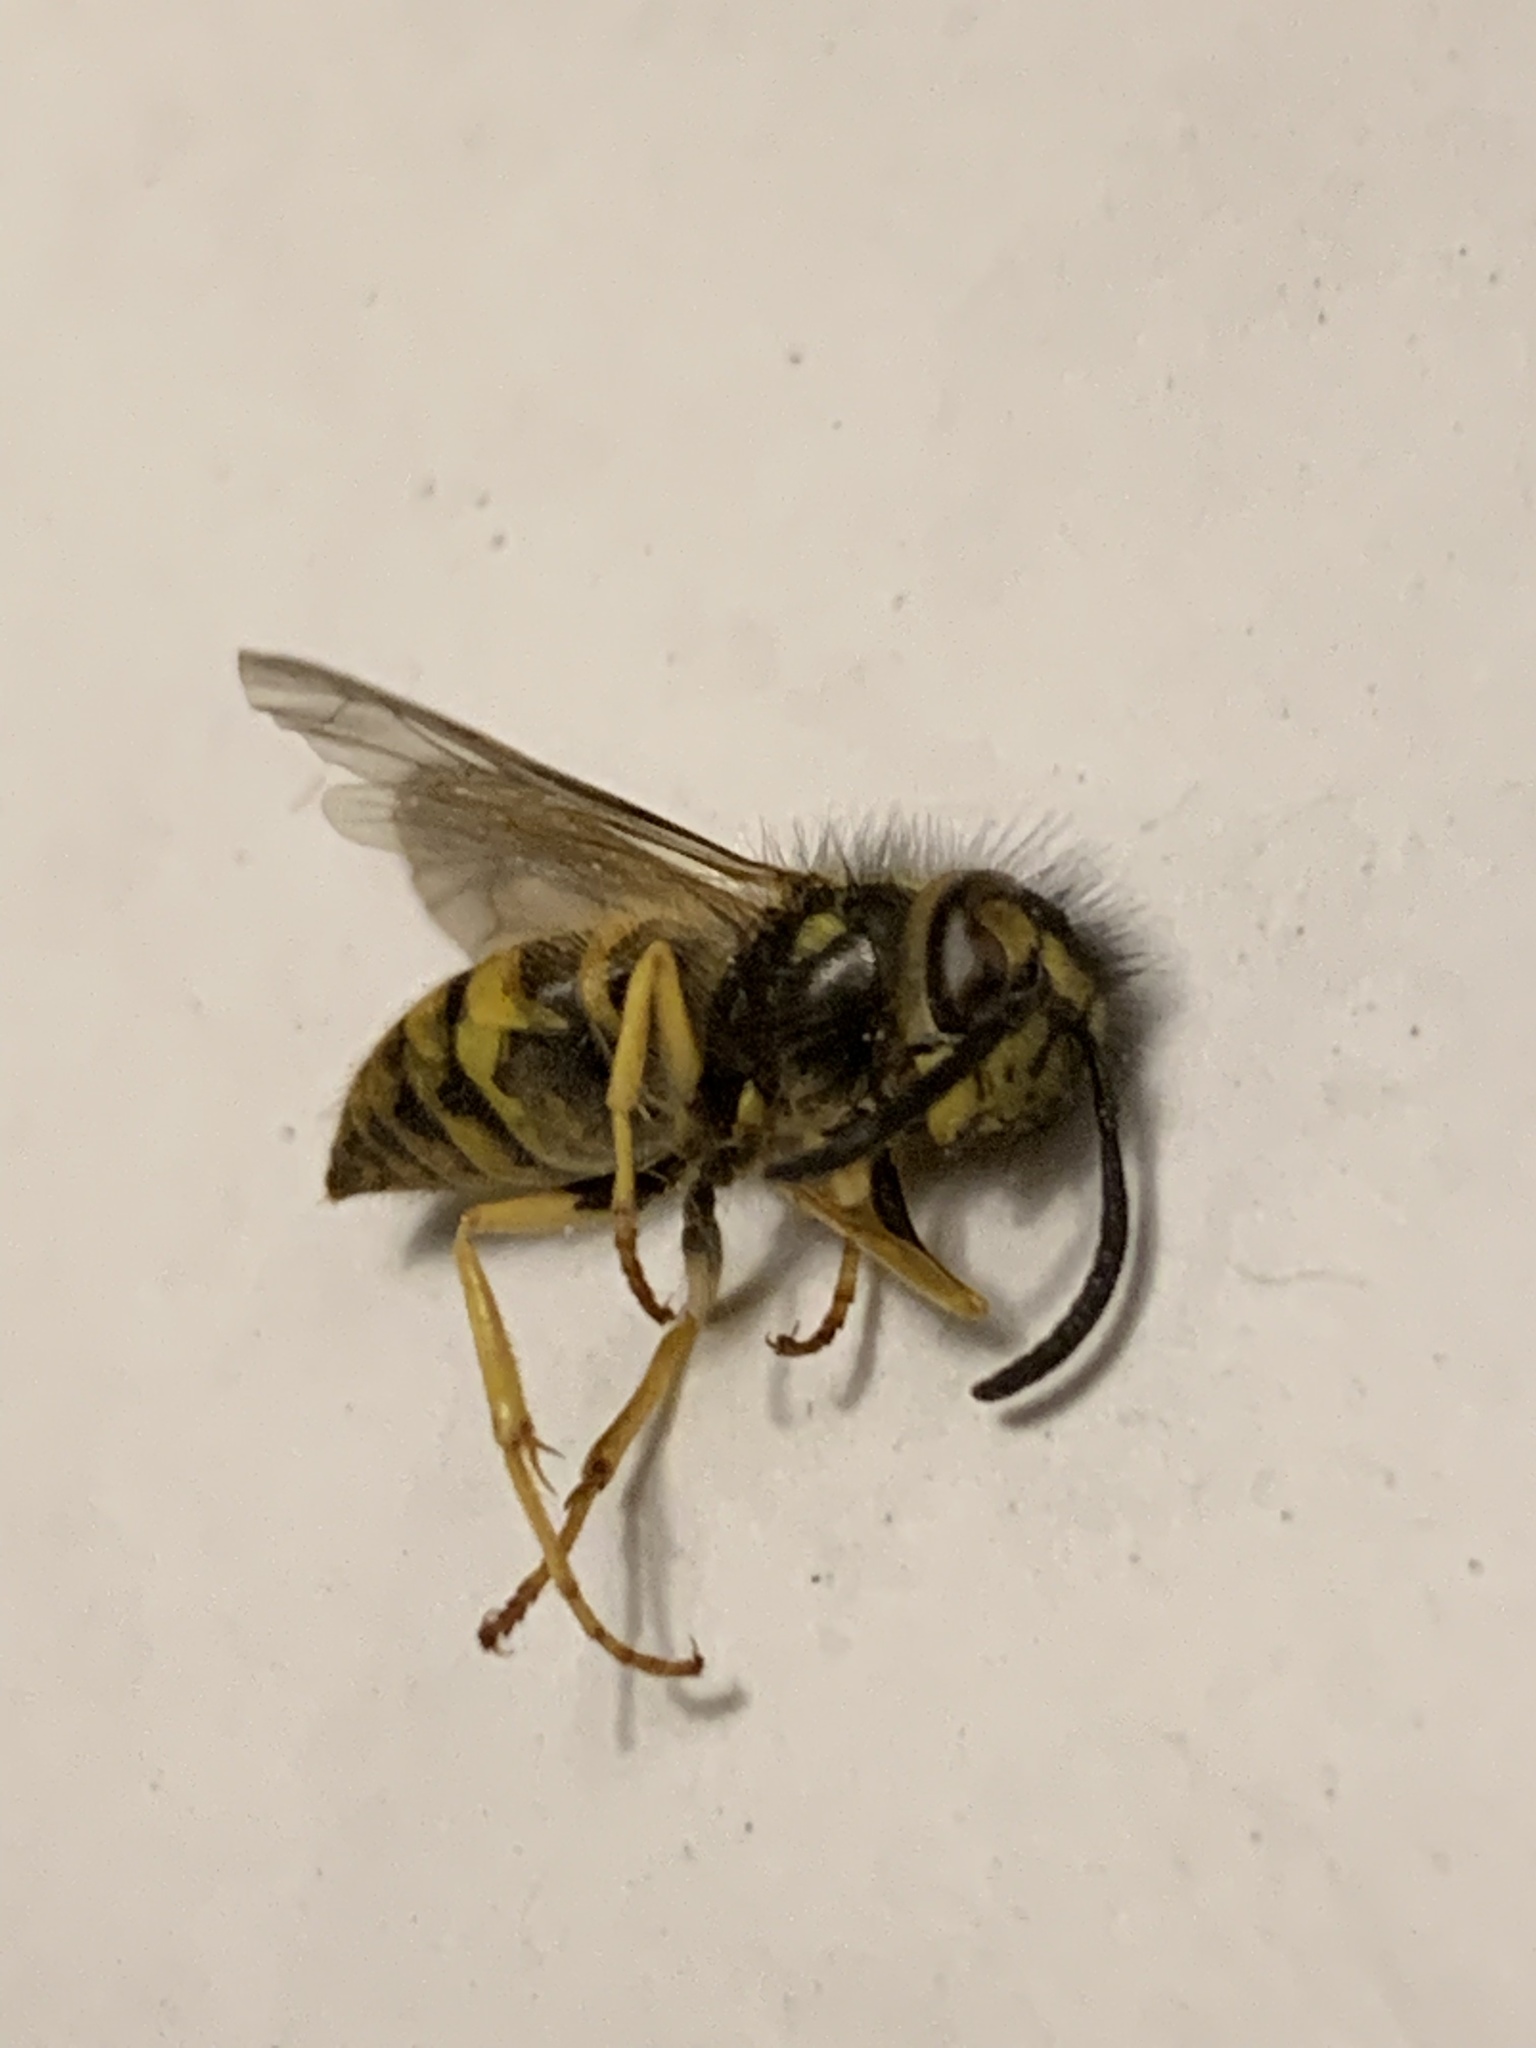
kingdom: Animalia
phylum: Arthropoda
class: Insecta
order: Hymenoptera
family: Vespidae
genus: Vespula
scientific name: Vespula
